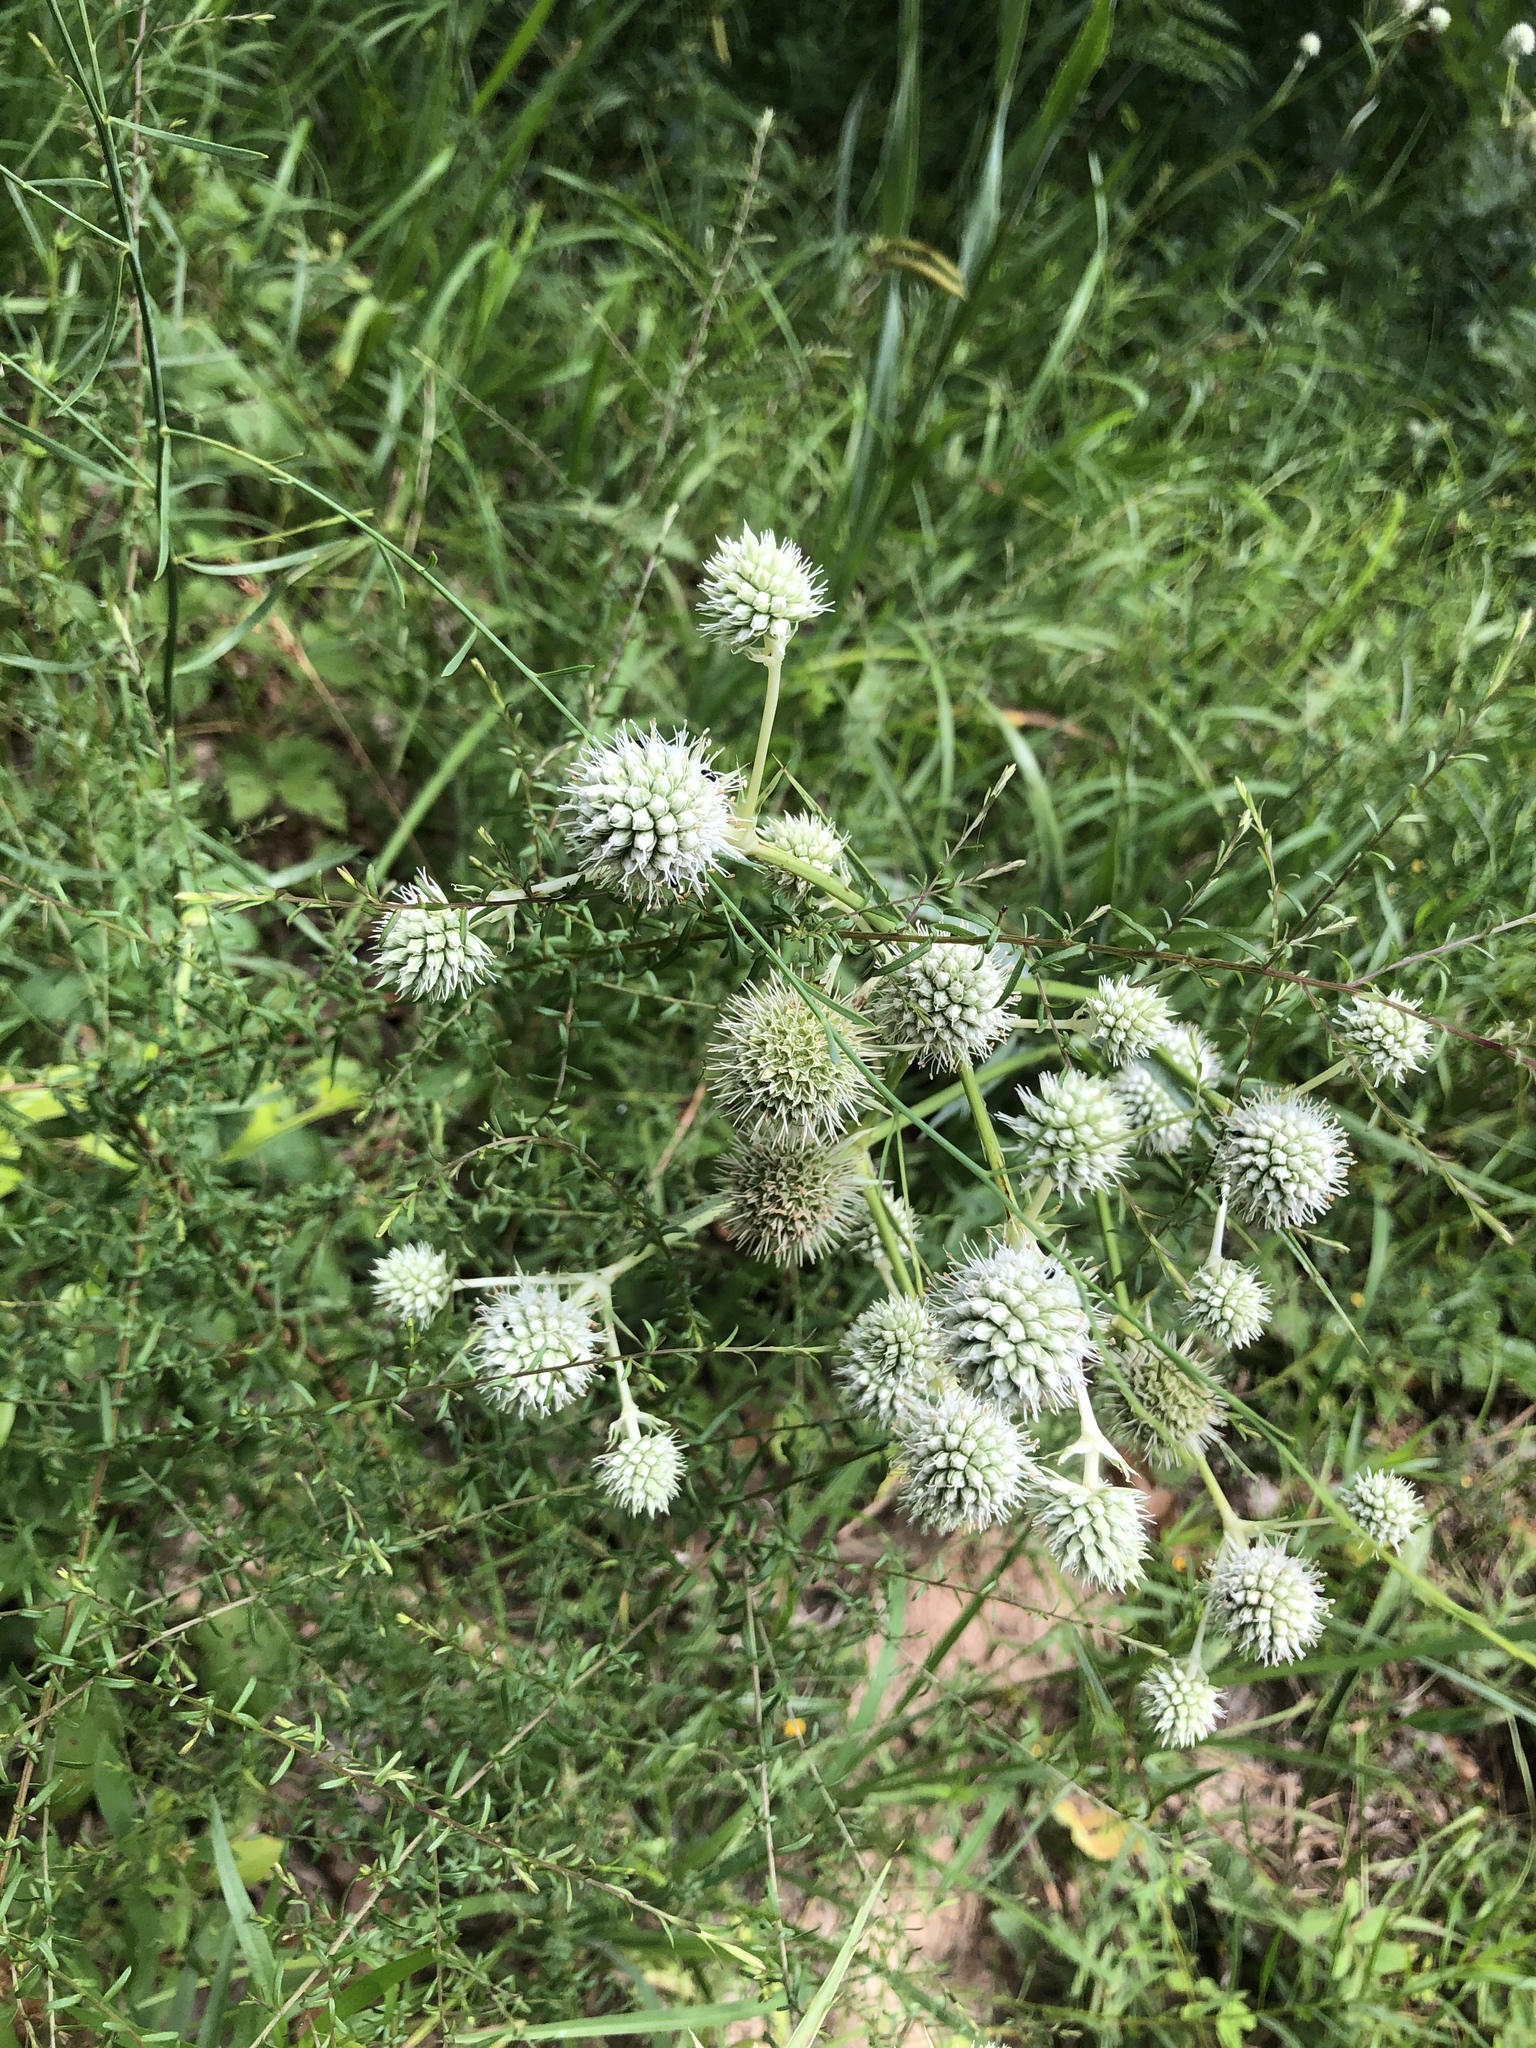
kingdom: Plantae
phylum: Tracheophyta
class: Magnoliopsida
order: Apiales
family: Apiaceae
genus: Eryngium
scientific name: Eryngium yuccifolium
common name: Button eryngo
